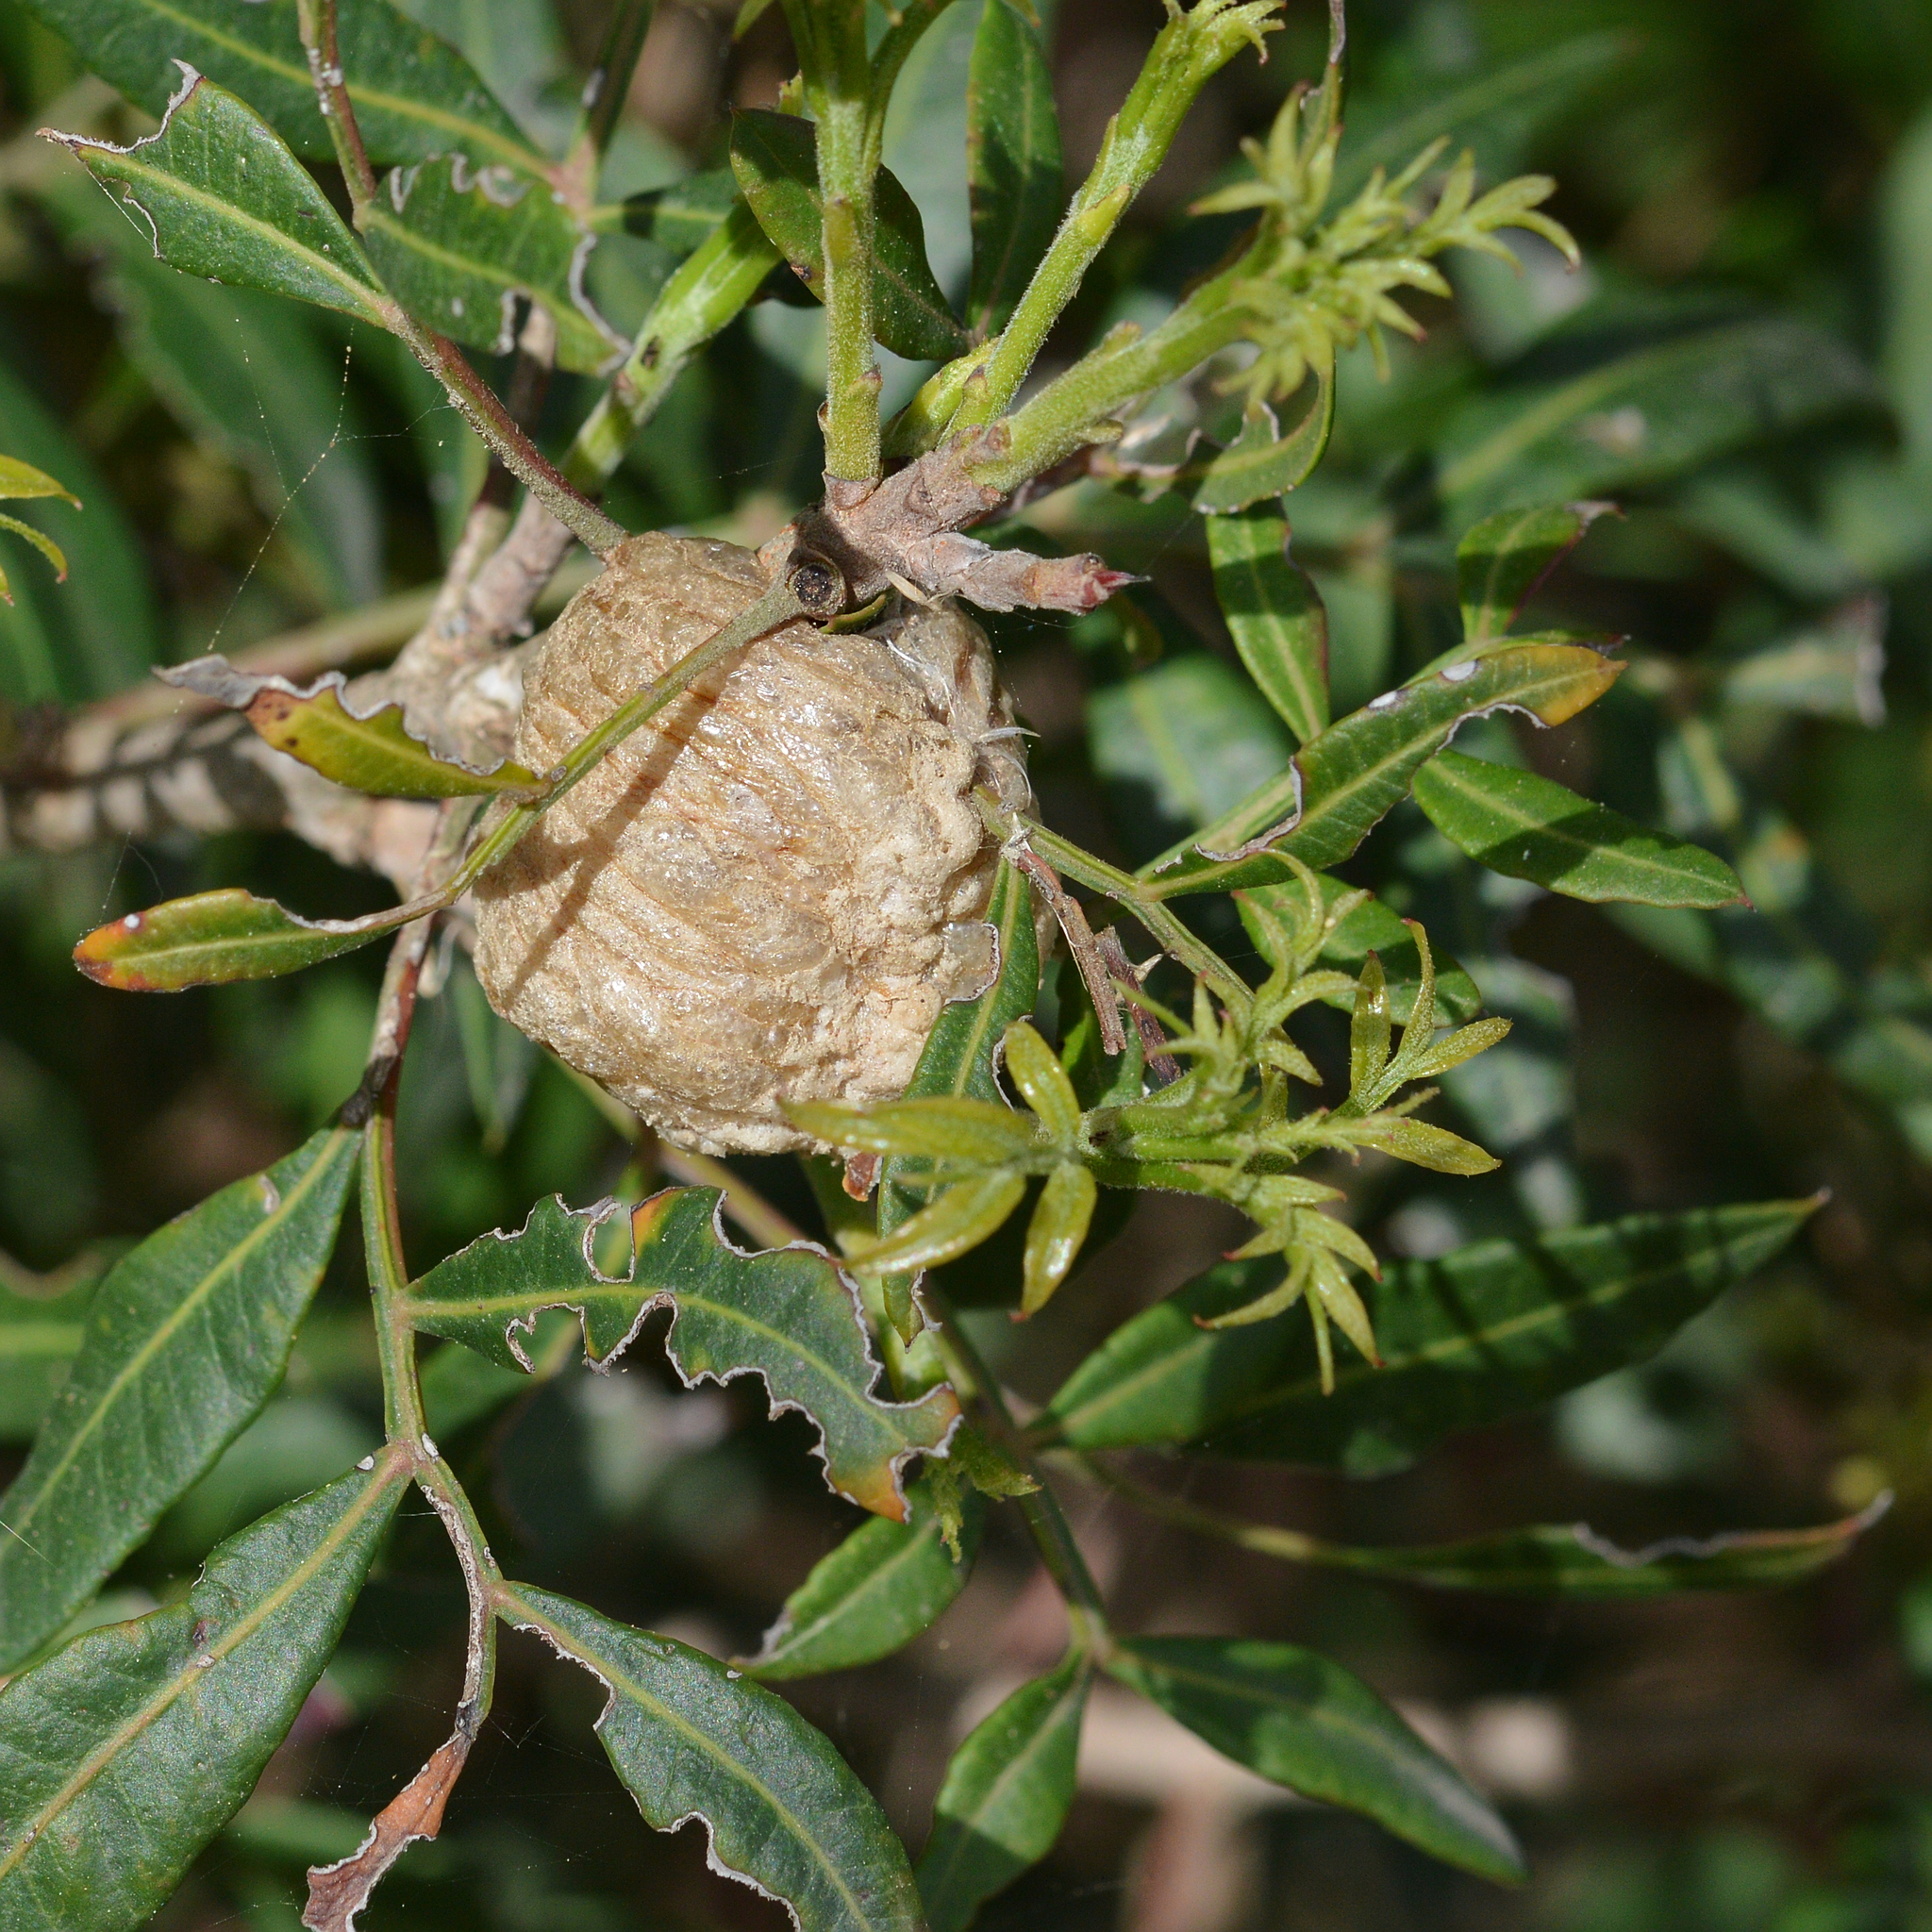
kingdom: Plantae
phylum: Tracheophyta
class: Magnoliopsida
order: Sapindales
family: Anacardiaceae
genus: Pistacia
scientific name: Pistacia lentiscus
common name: Lentisk
